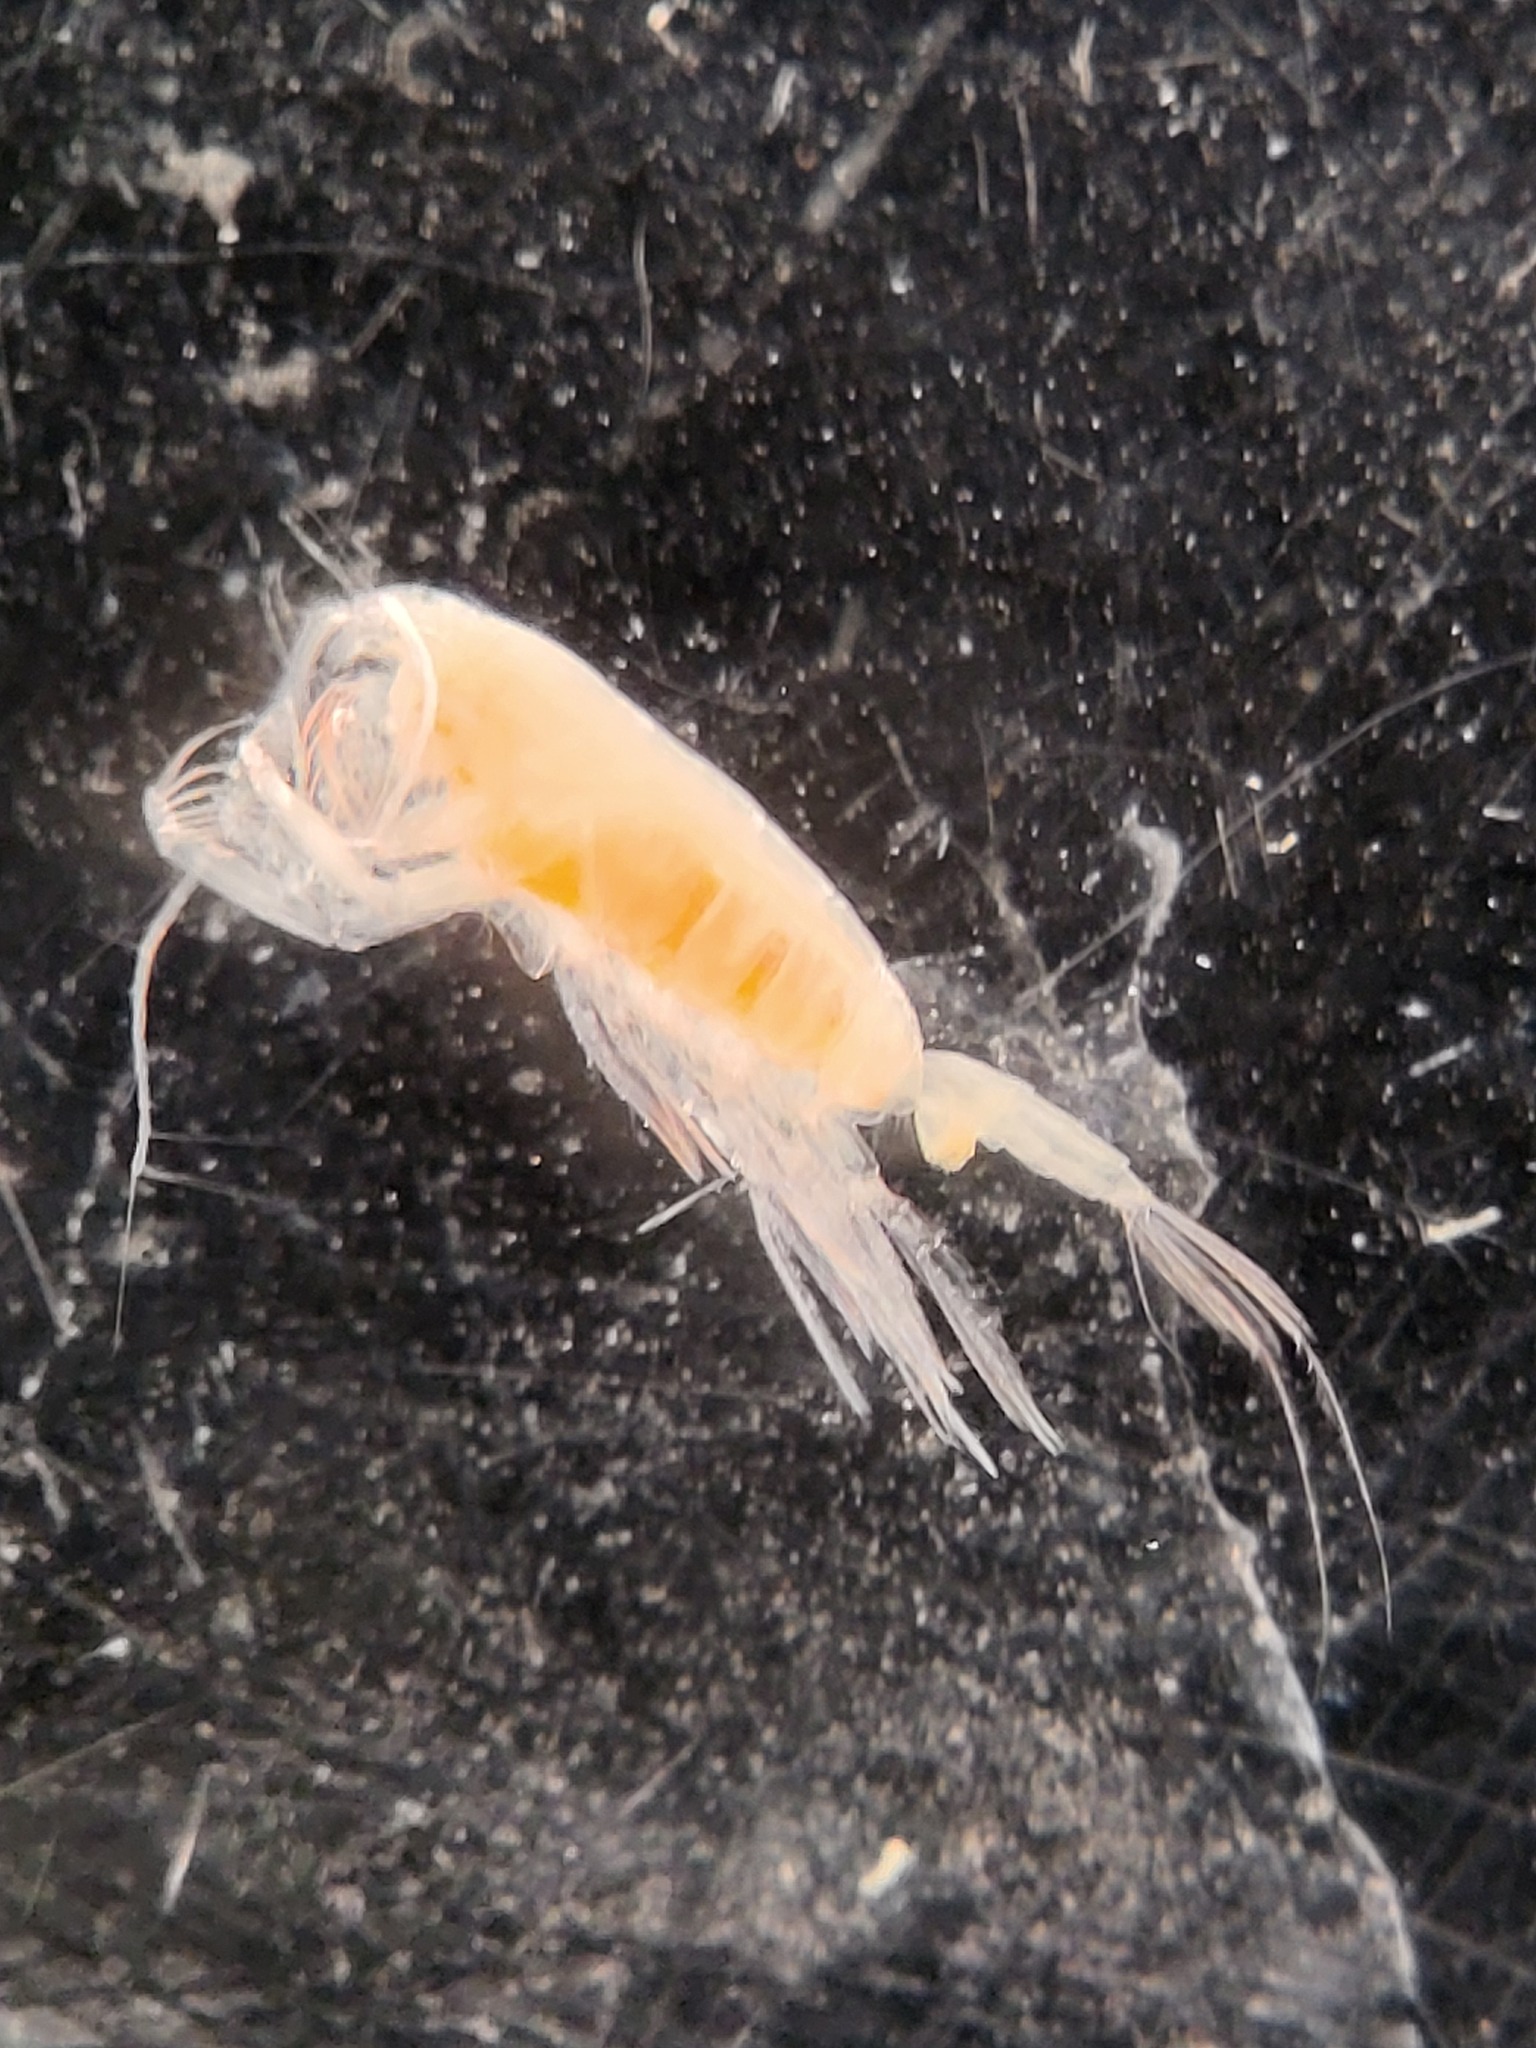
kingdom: Animalia
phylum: Arthropoda
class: Copepoda
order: Calanoida
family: Euchaetidae
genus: Paraeuchaeta
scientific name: Paraeuchaeta glacialis
